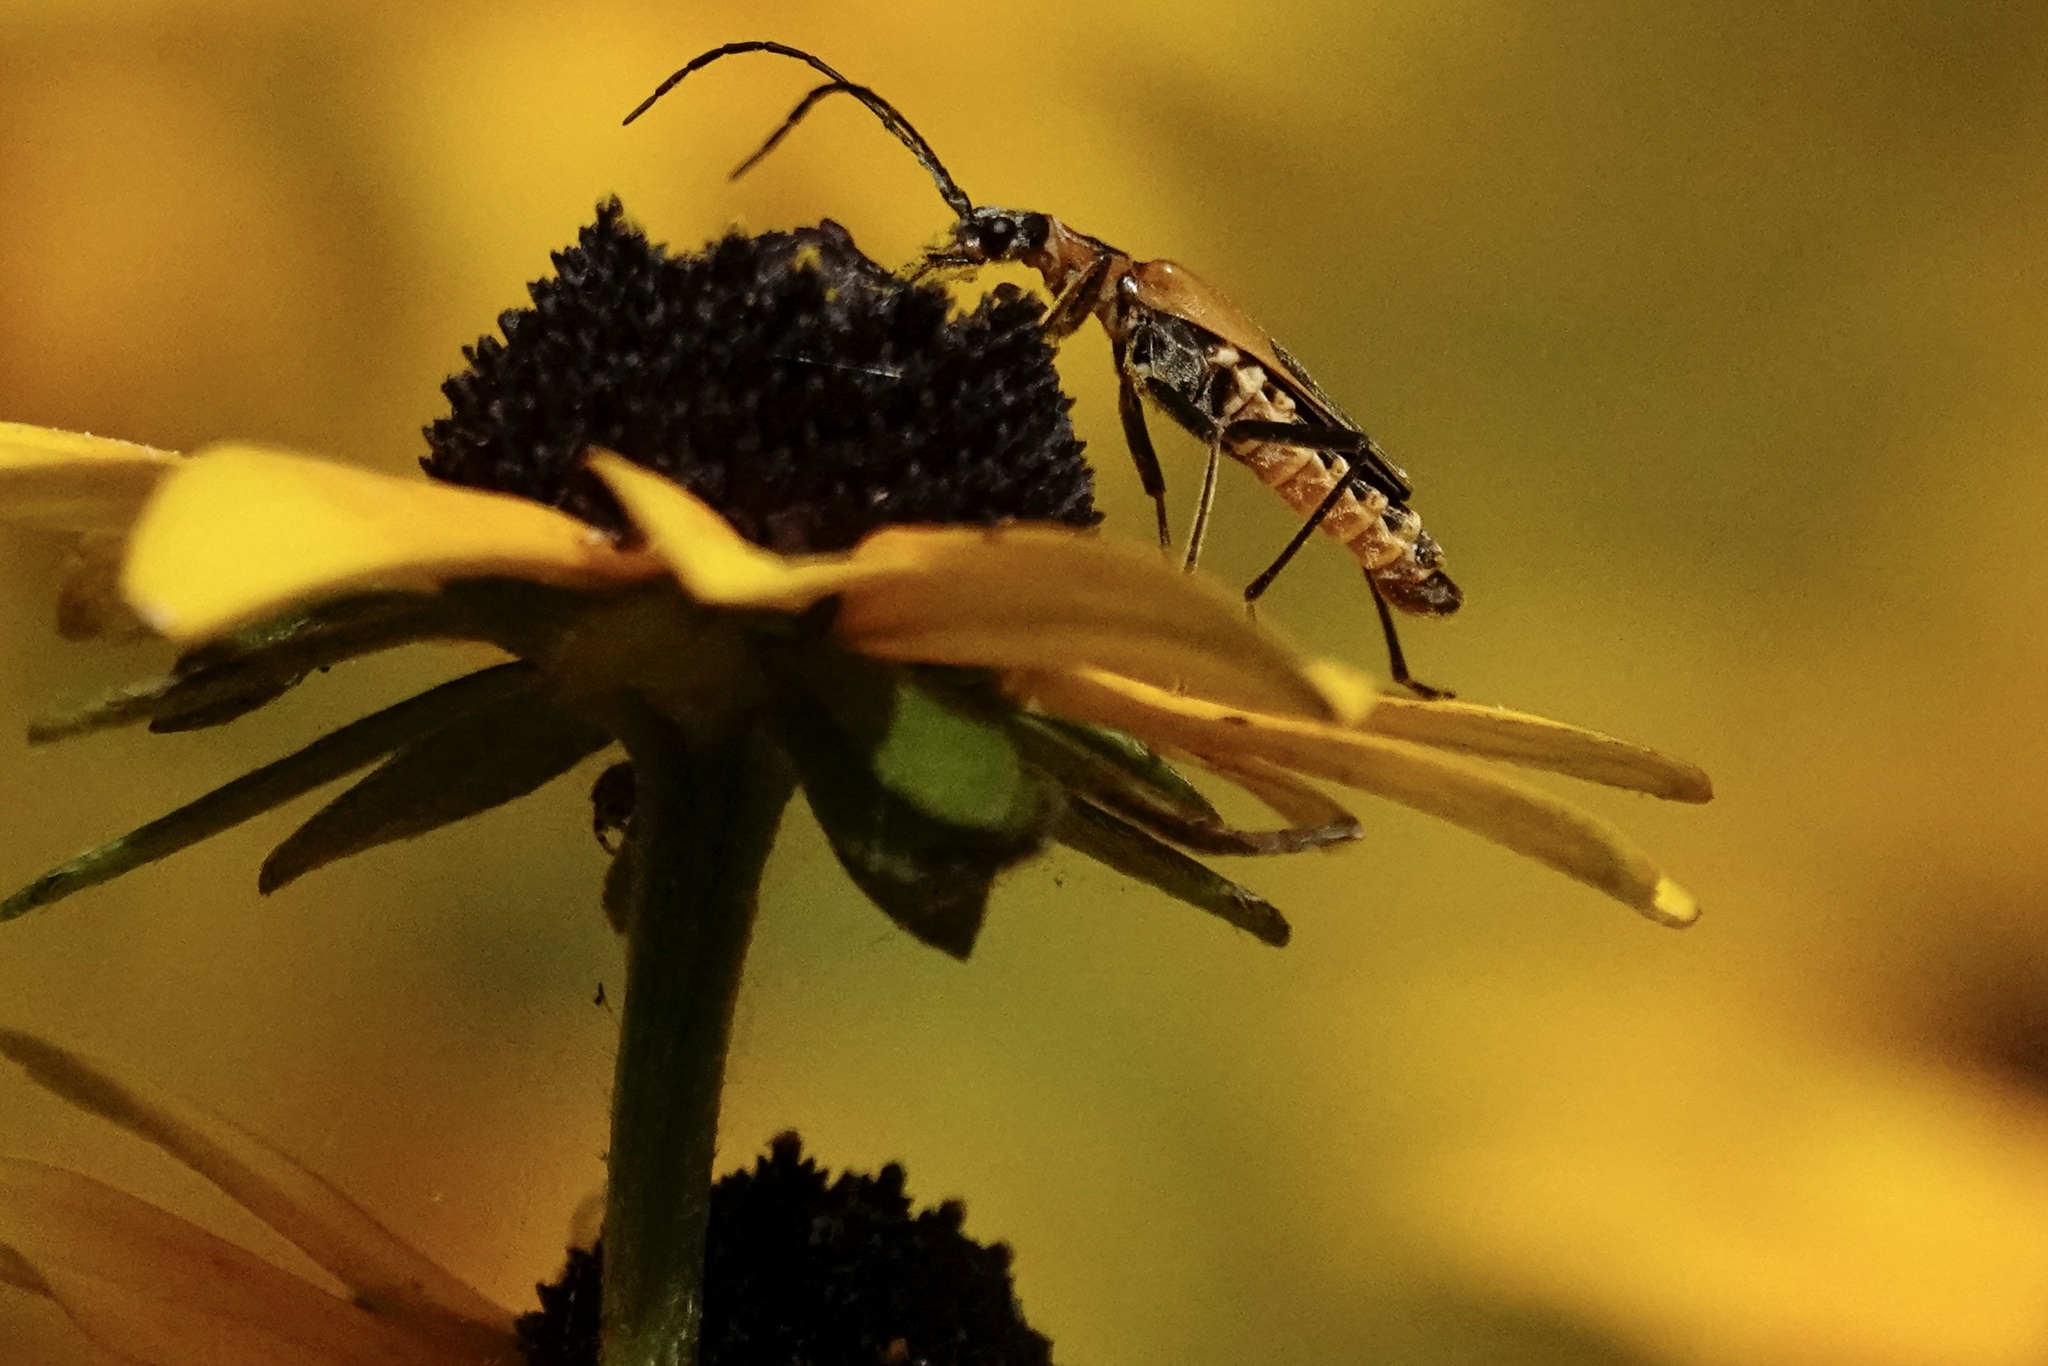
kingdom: Animalia
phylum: Arthropoda
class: Insecta
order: Coleoptera
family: Cantharidae
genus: Chauliognathus
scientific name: Chauliognathus pensylvanicus
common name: Goldenrod soldier beetle
